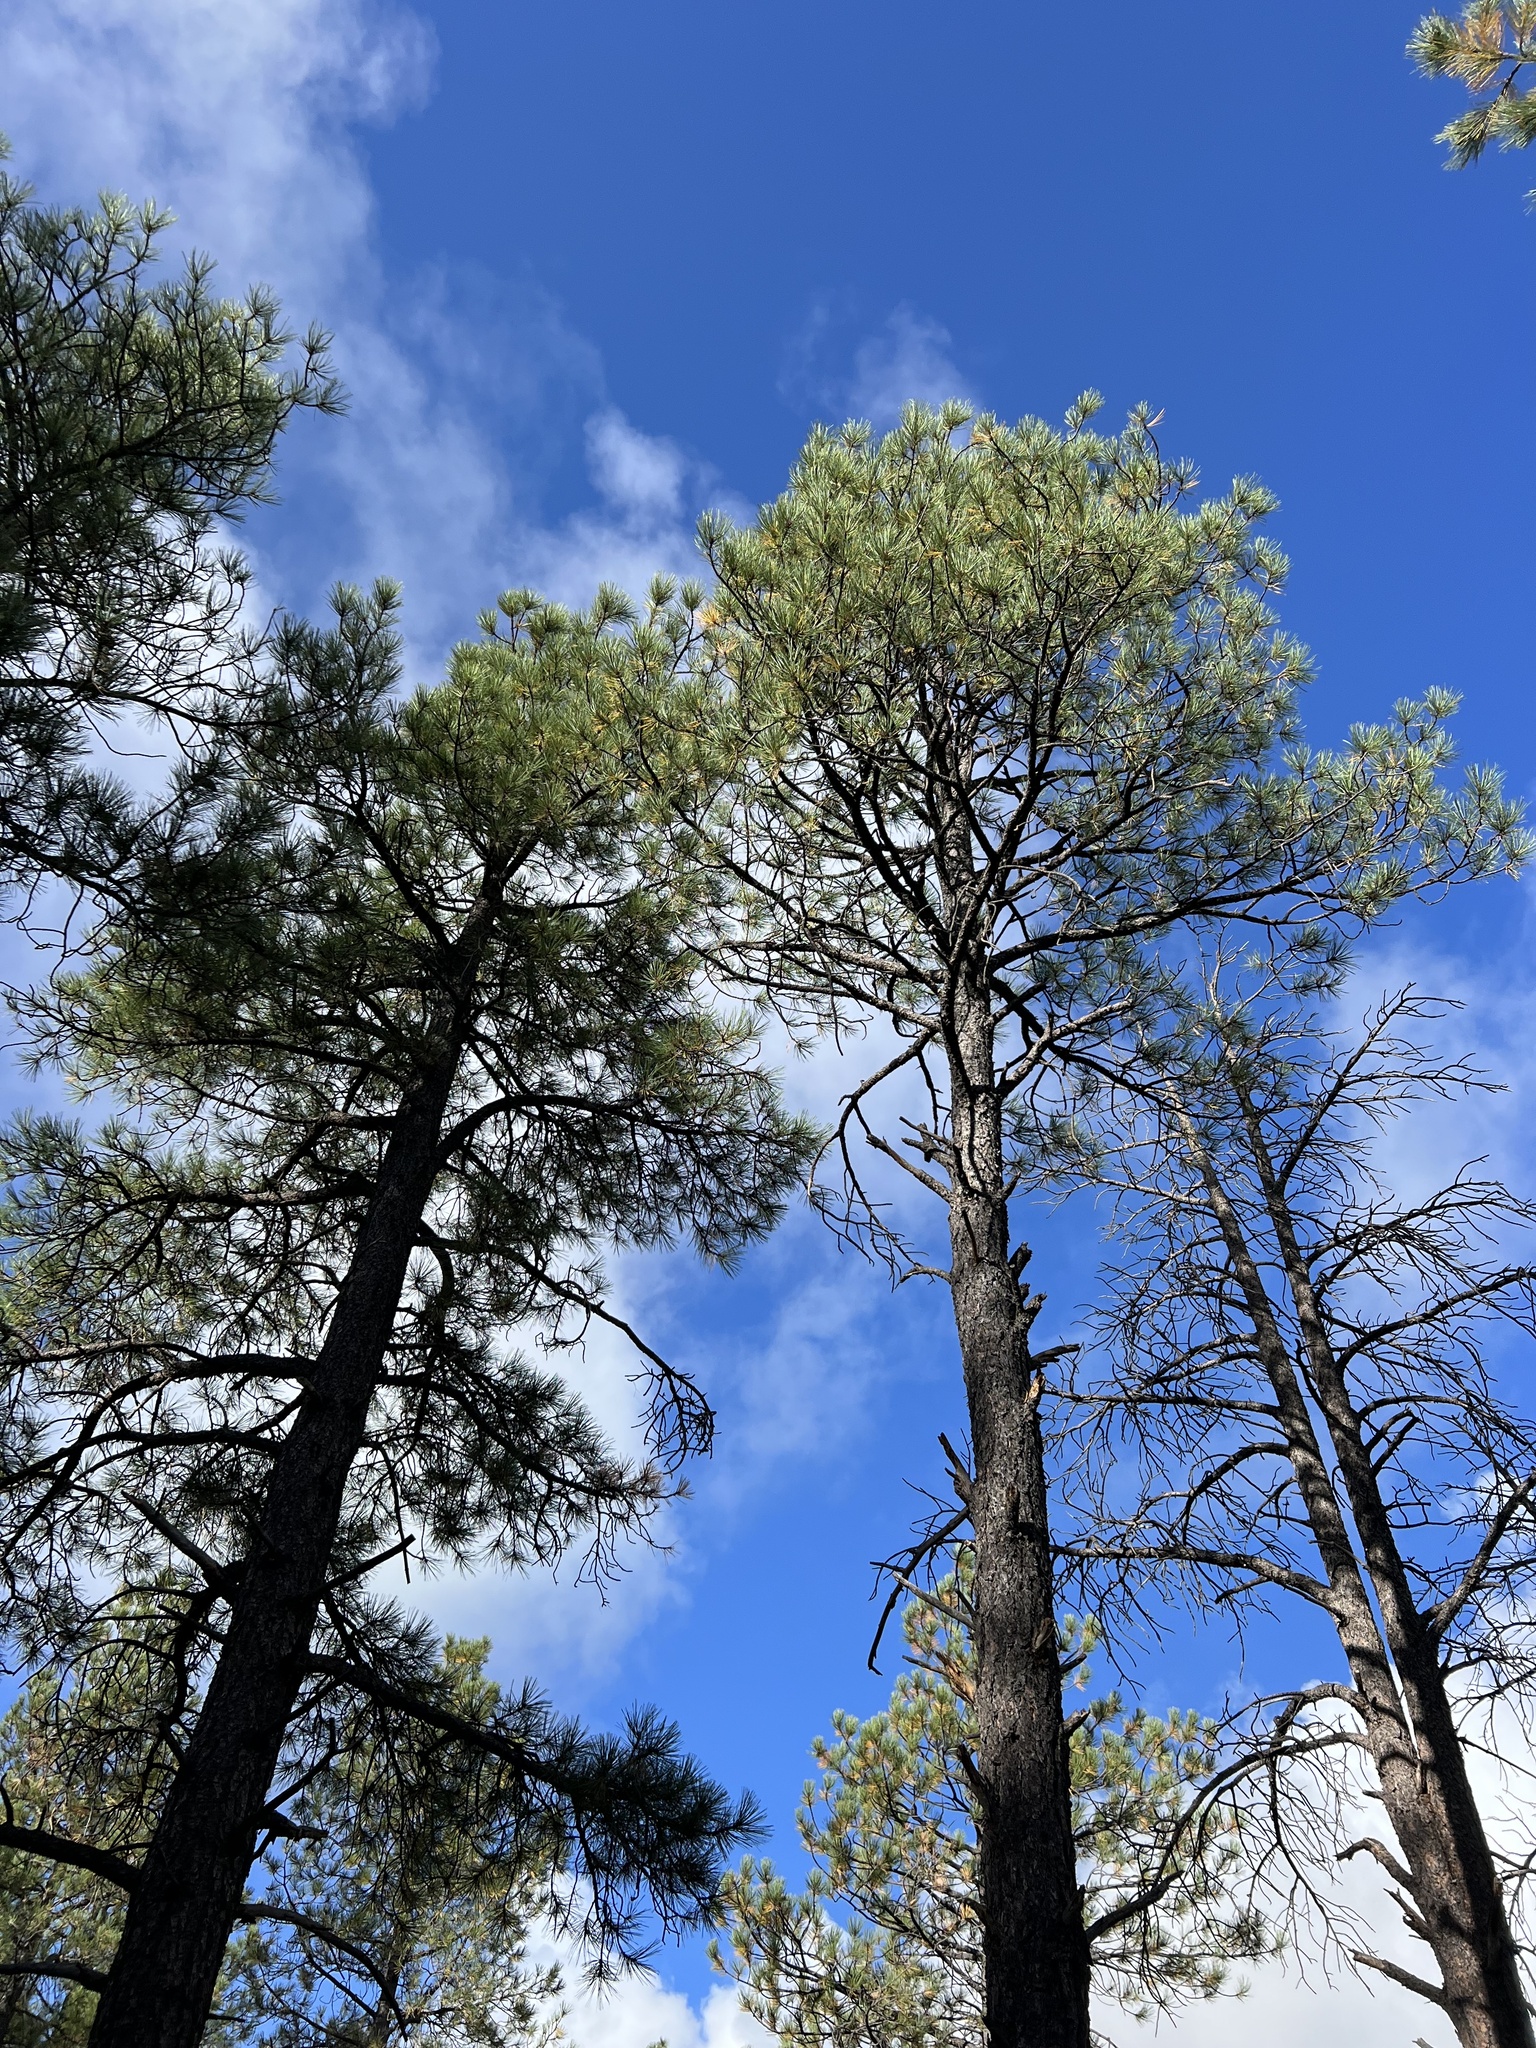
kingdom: Plantae
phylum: Tracheophyta
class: Pinopsida
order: Pinales
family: Pinaceae
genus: Pinus
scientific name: Pinus ponderosa
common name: Western yellow-pine
